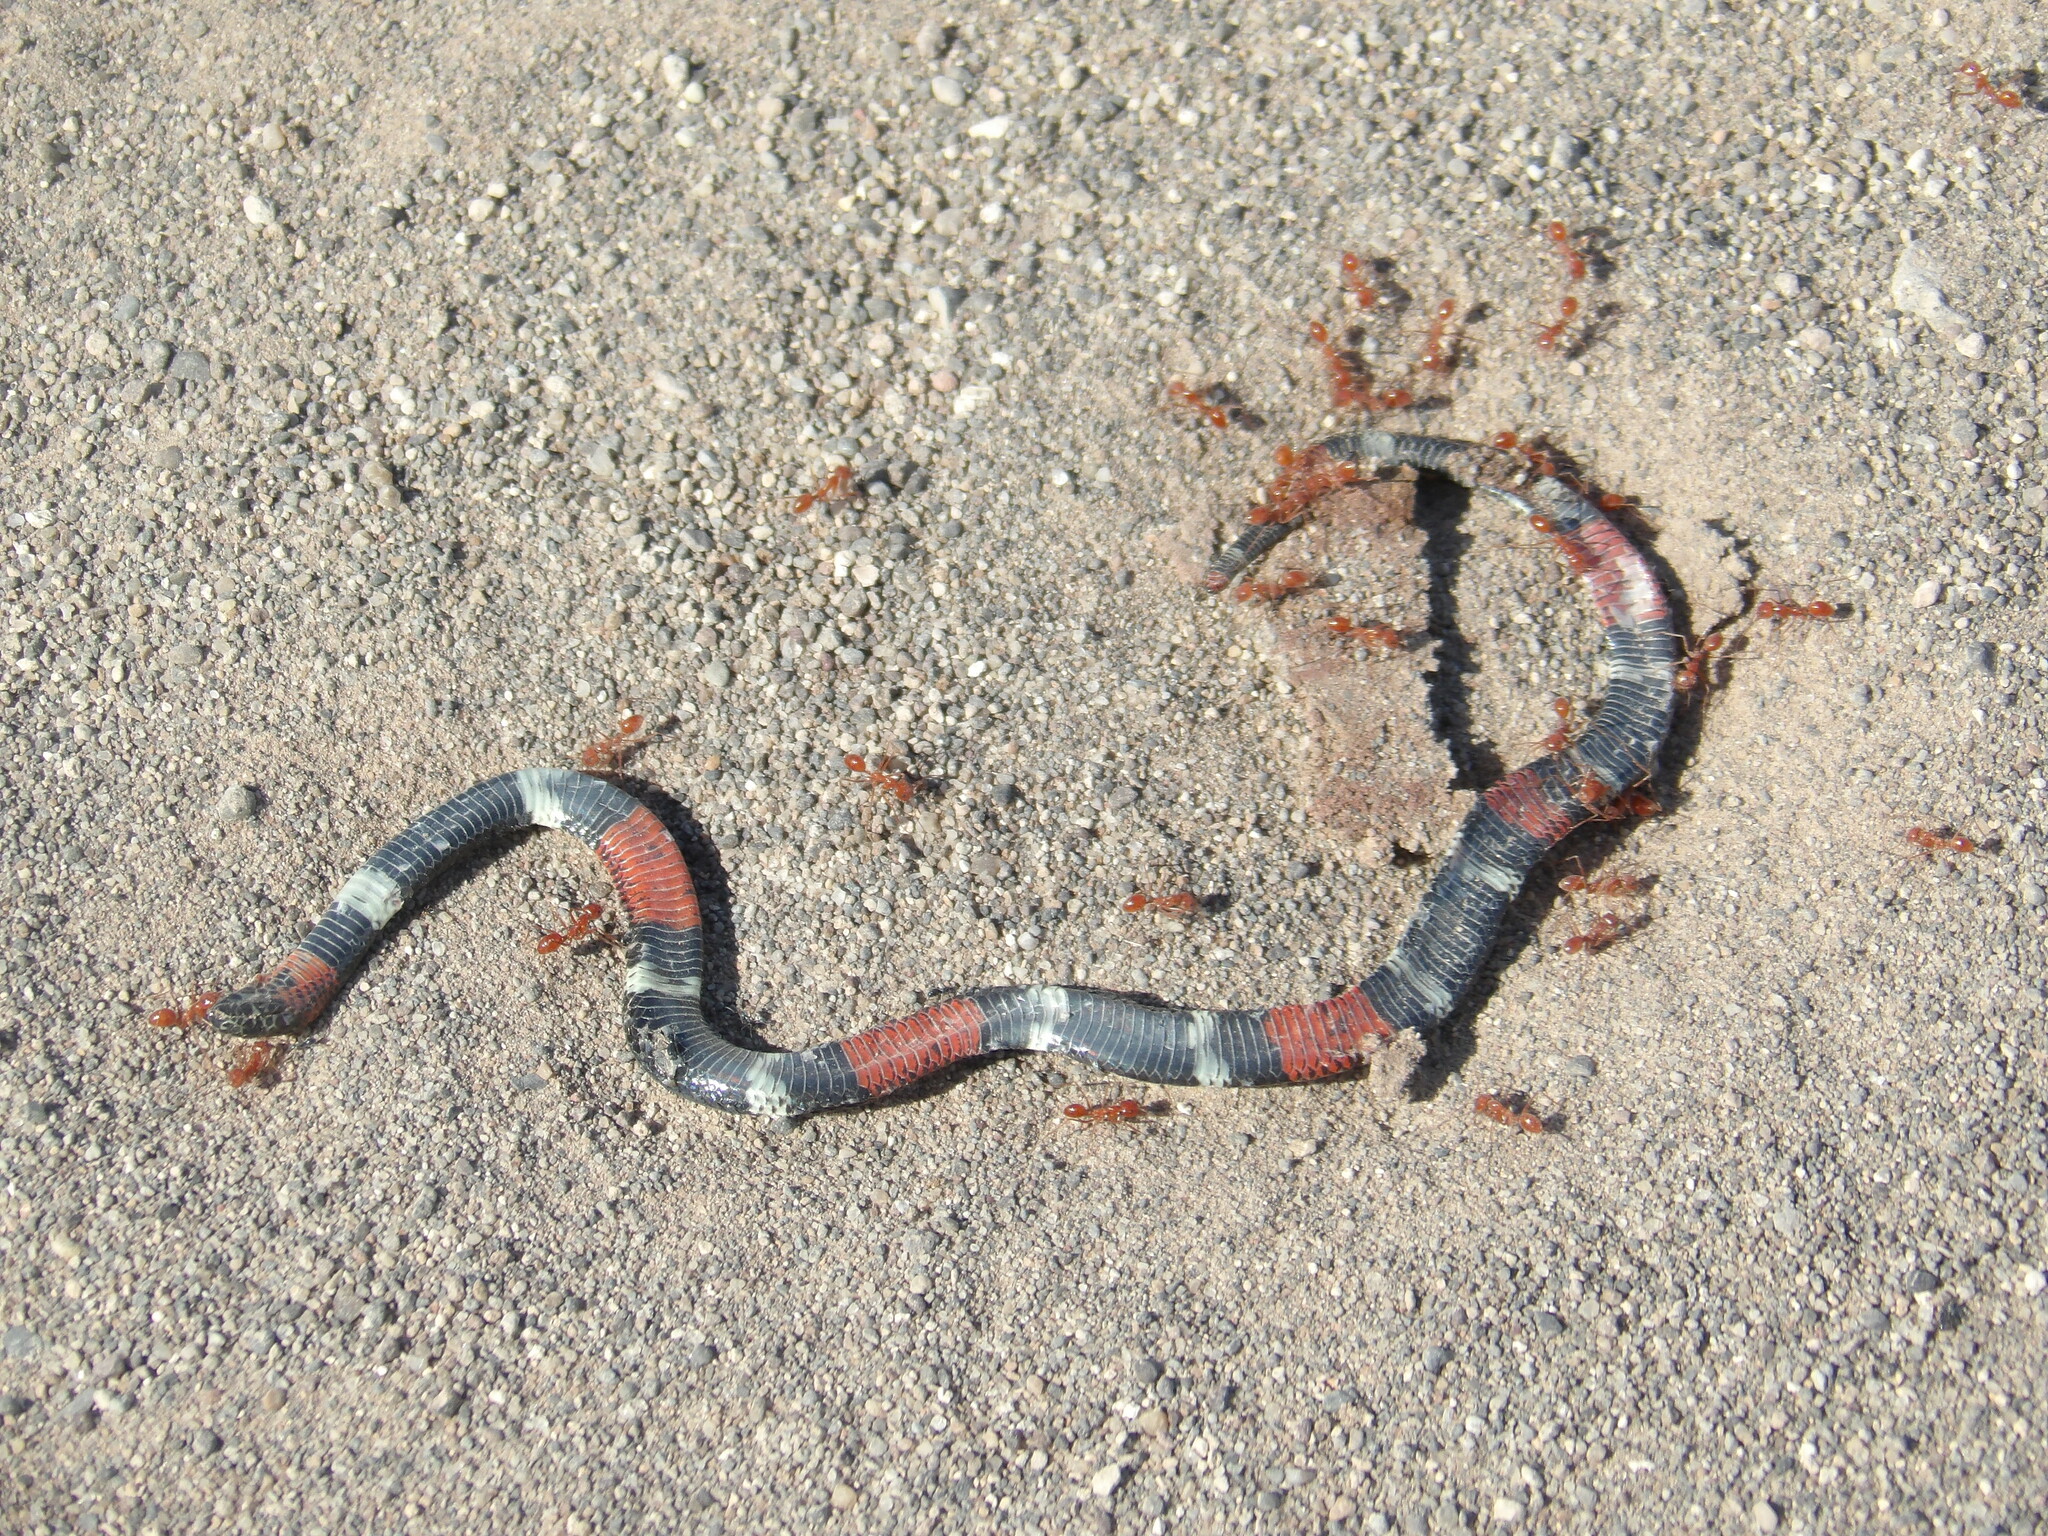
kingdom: Animalia
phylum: Chordata
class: Squamata
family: Elapidae
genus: Micrurus
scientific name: Micrurus pyrrhocryptus
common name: Argentinian coral snake
